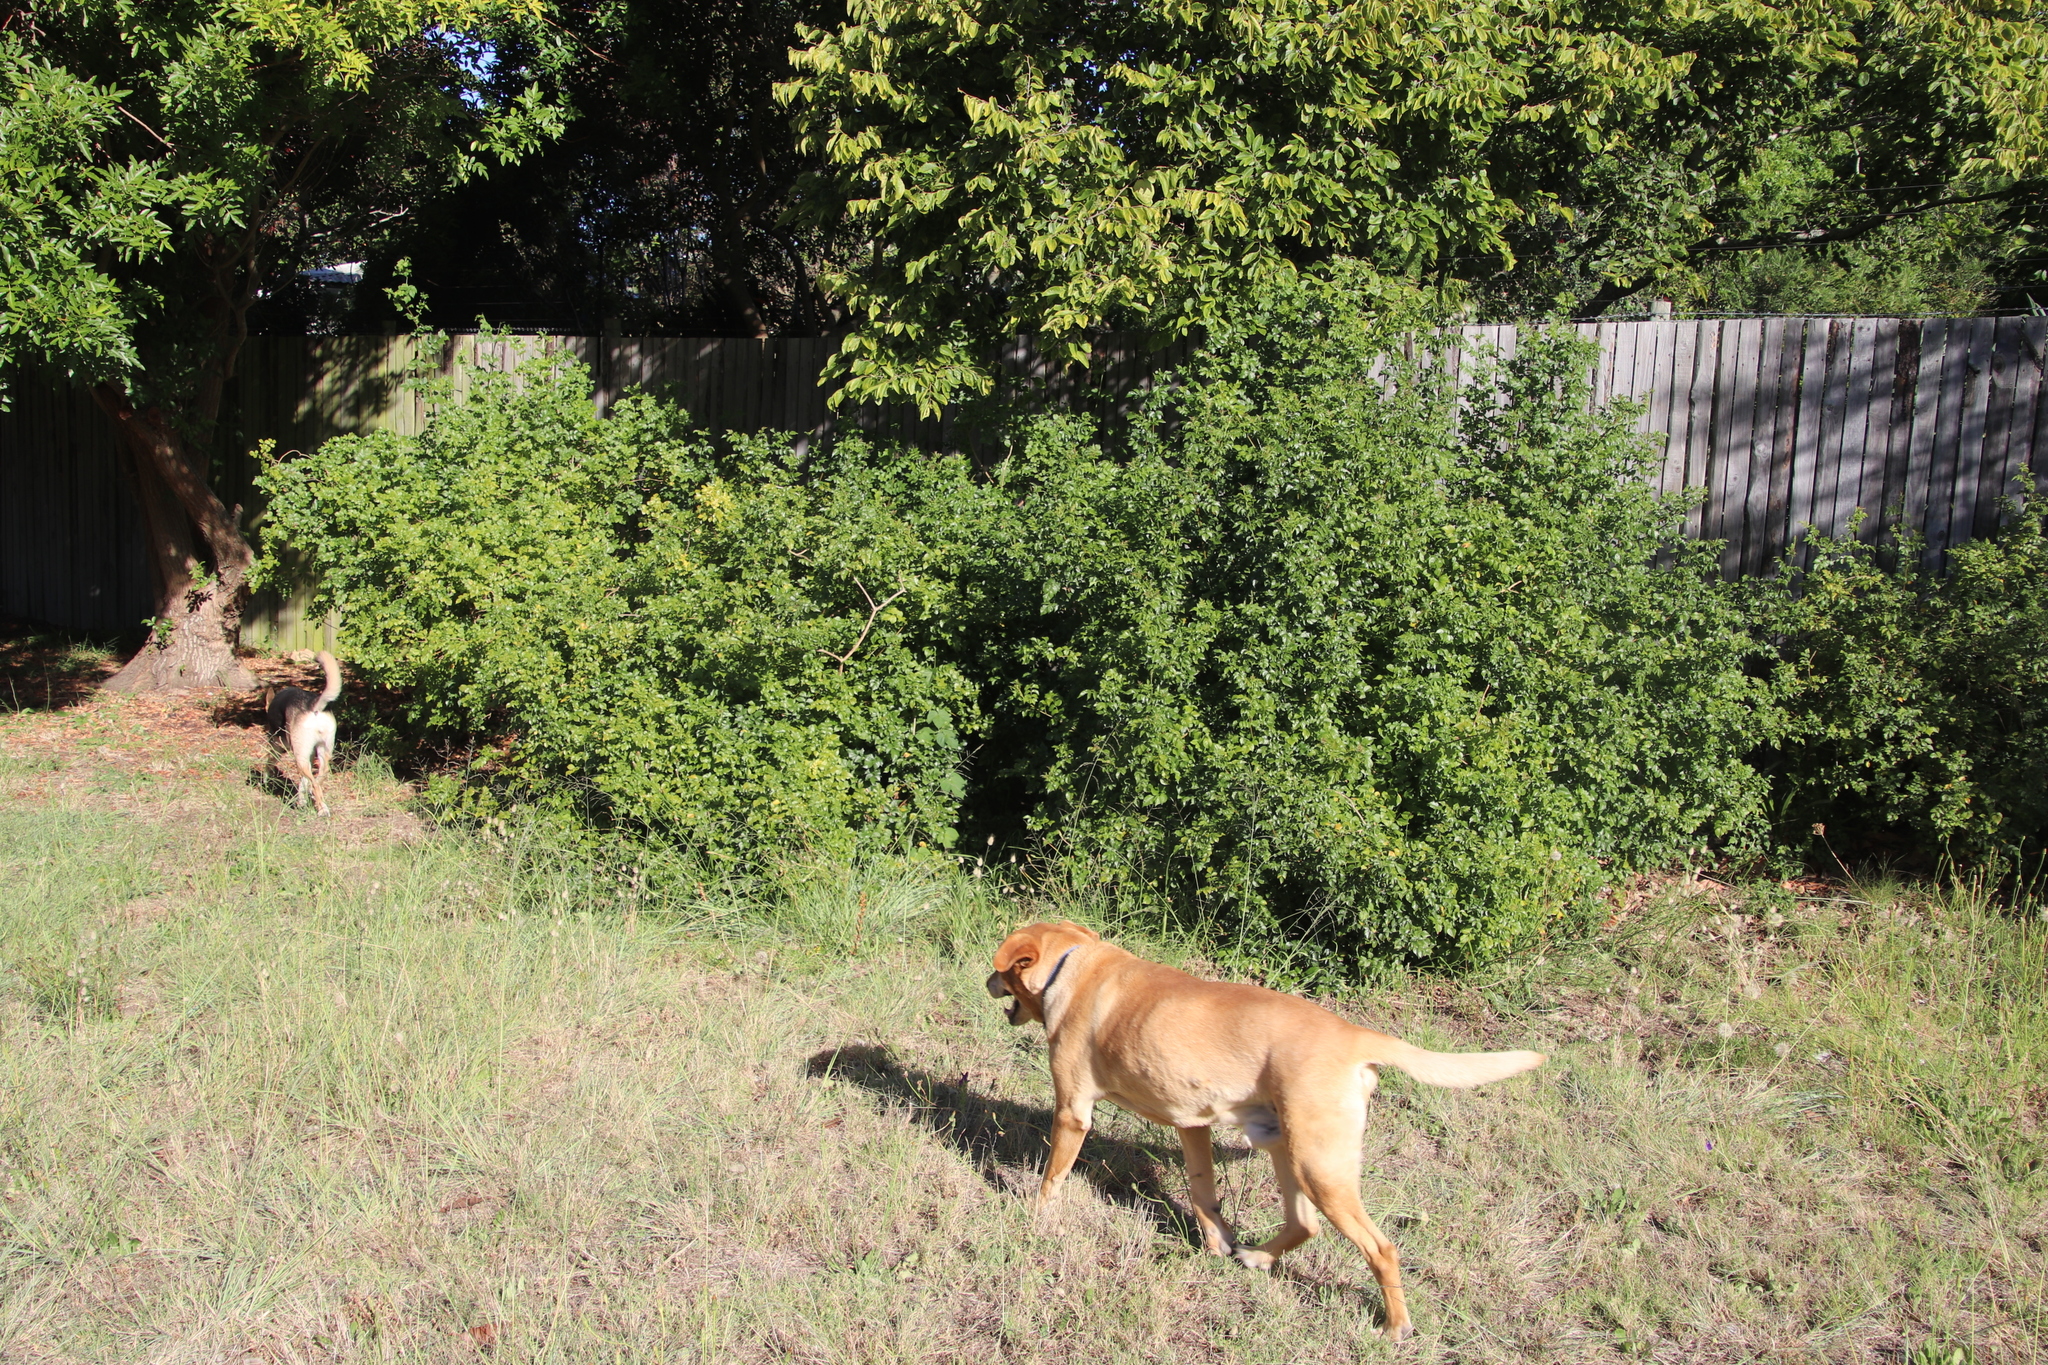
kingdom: Plantae
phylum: Tracheophyta
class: Magnoliopsida
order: Lamiales
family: Bignoniaceae
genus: Tecomaria
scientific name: Tecomaria capensis
